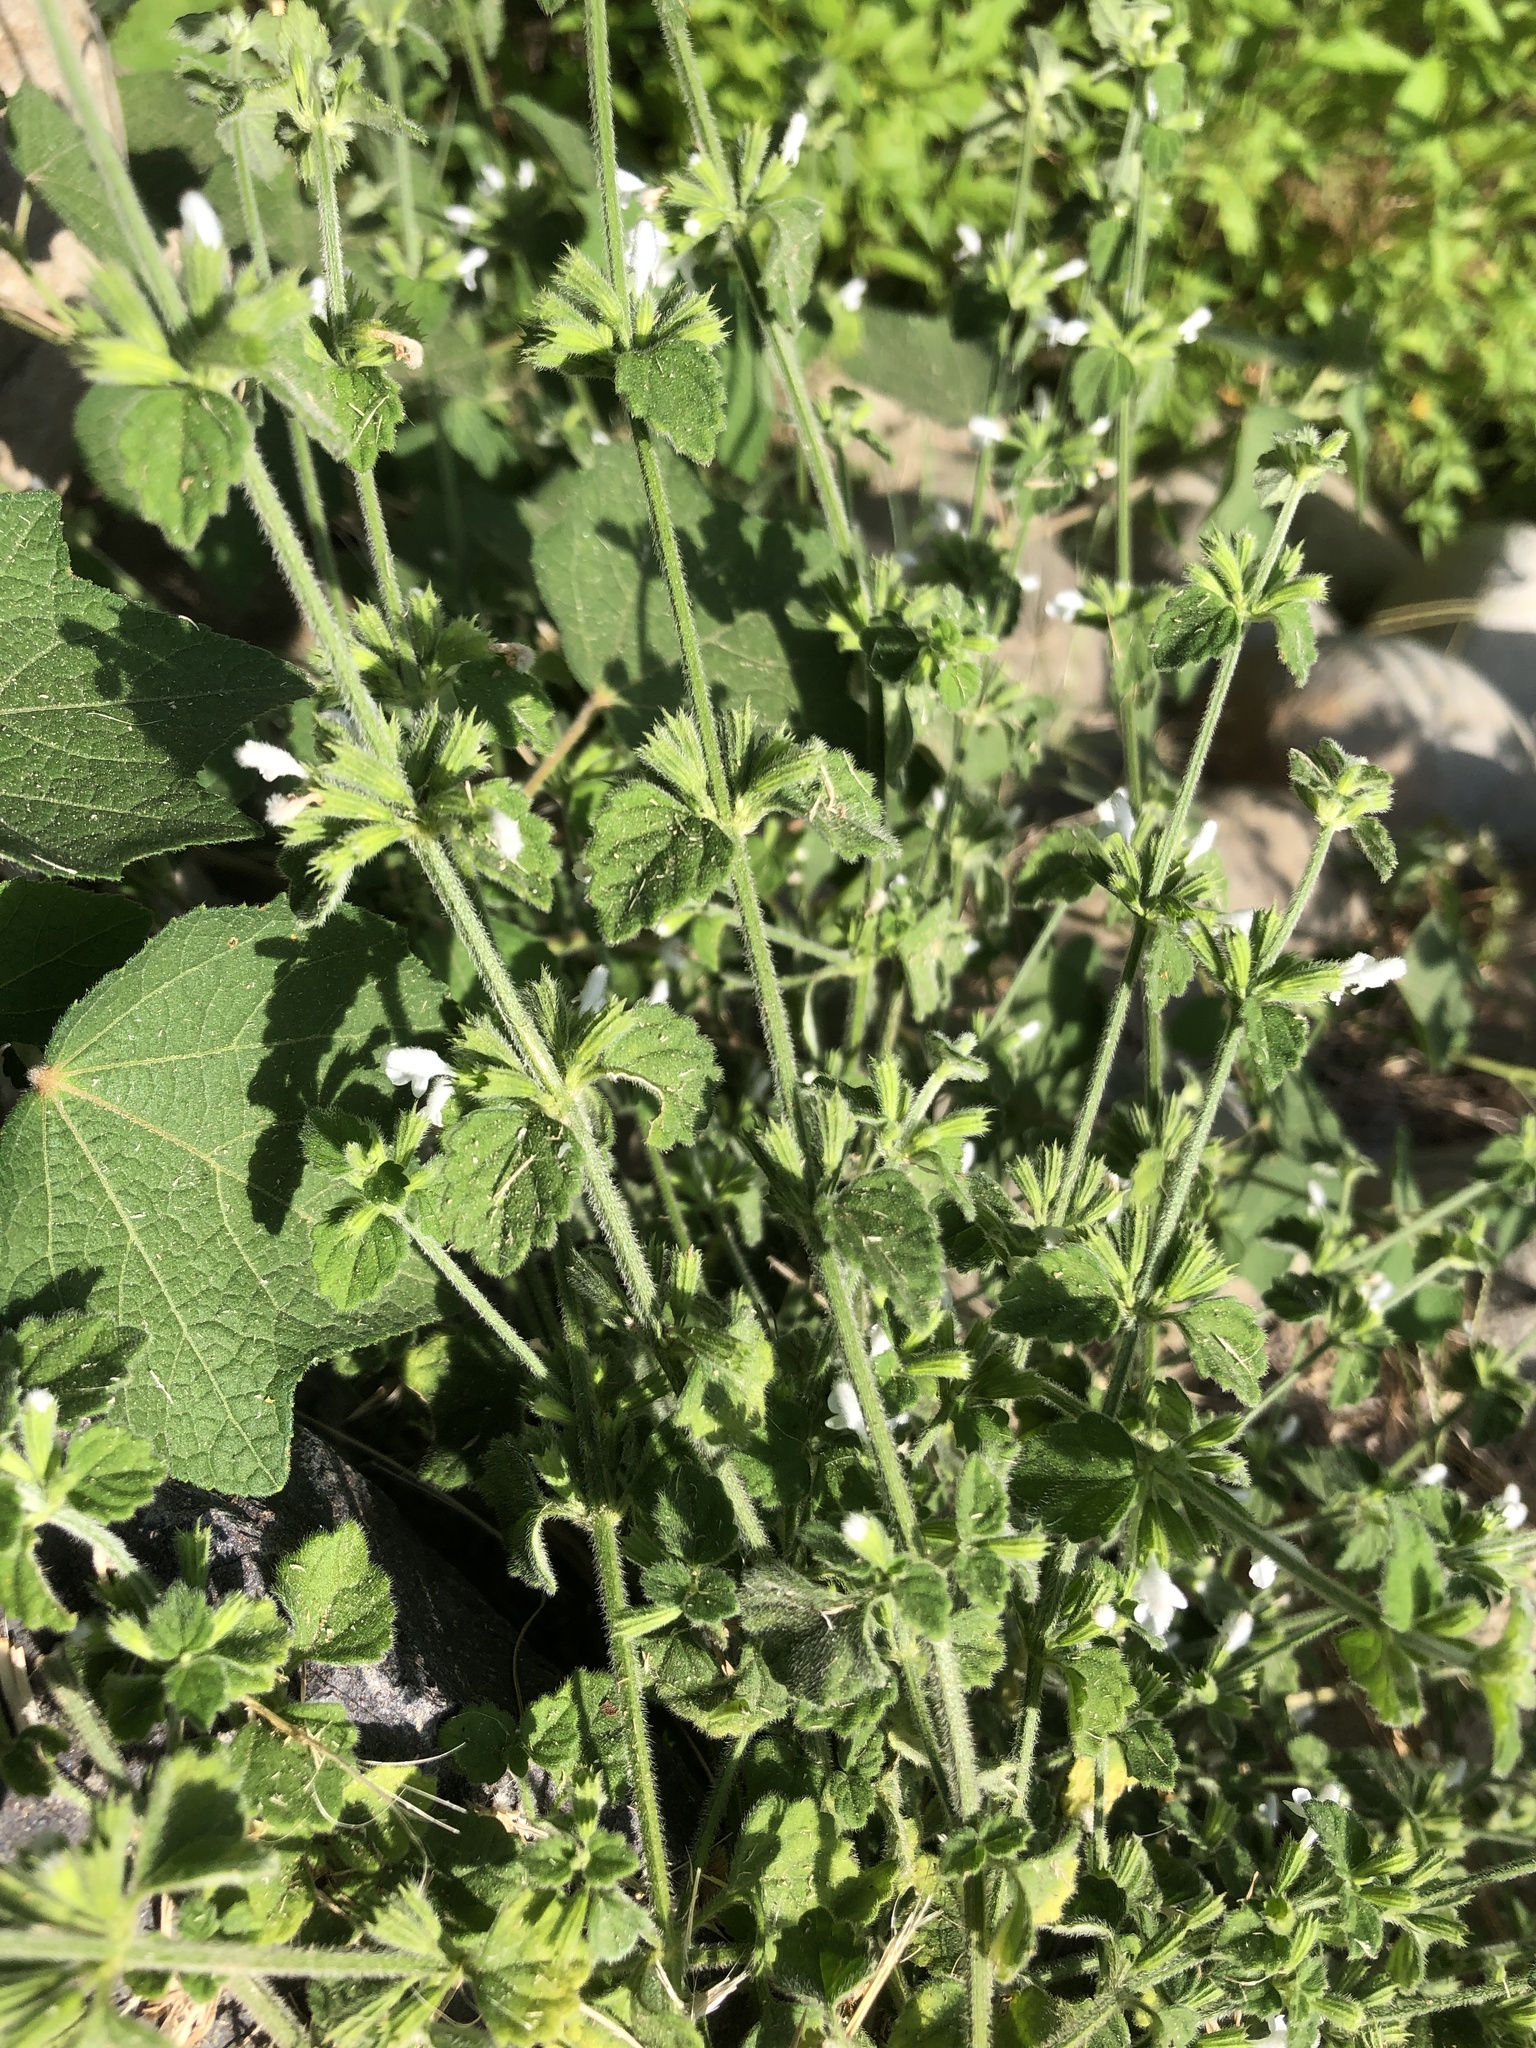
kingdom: Plantae
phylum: Tracheophyta
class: Magnoliopsida
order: Lamiales
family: Lamiaceae
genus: Leucas
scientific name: Leucas chinensis
